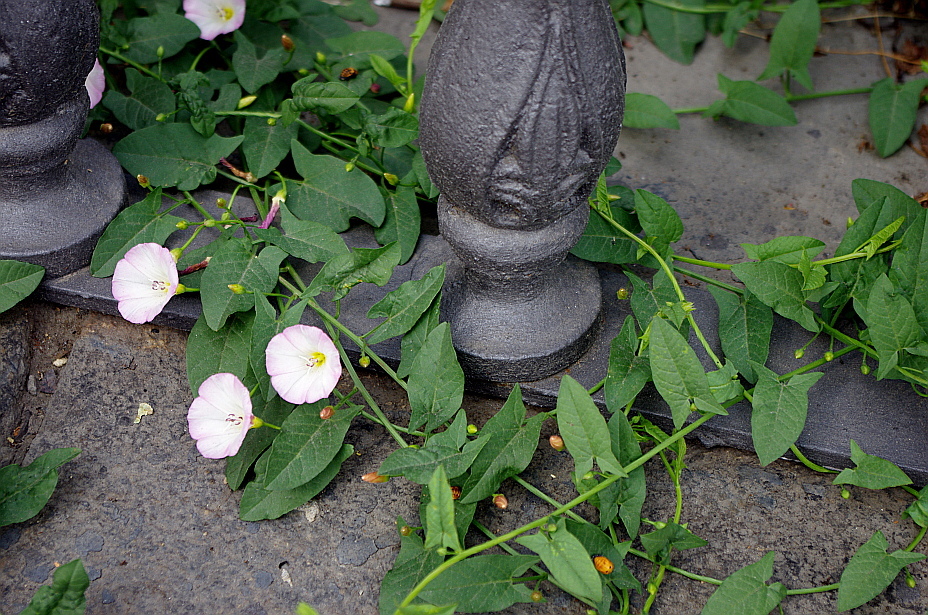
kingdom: Plantae
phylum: Tracheophyta
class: Magnoliopsida
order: Solanales
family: Convolvulaceae
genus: Convolvulus
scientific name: Convolvulus arvensis
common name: Field bindweed
